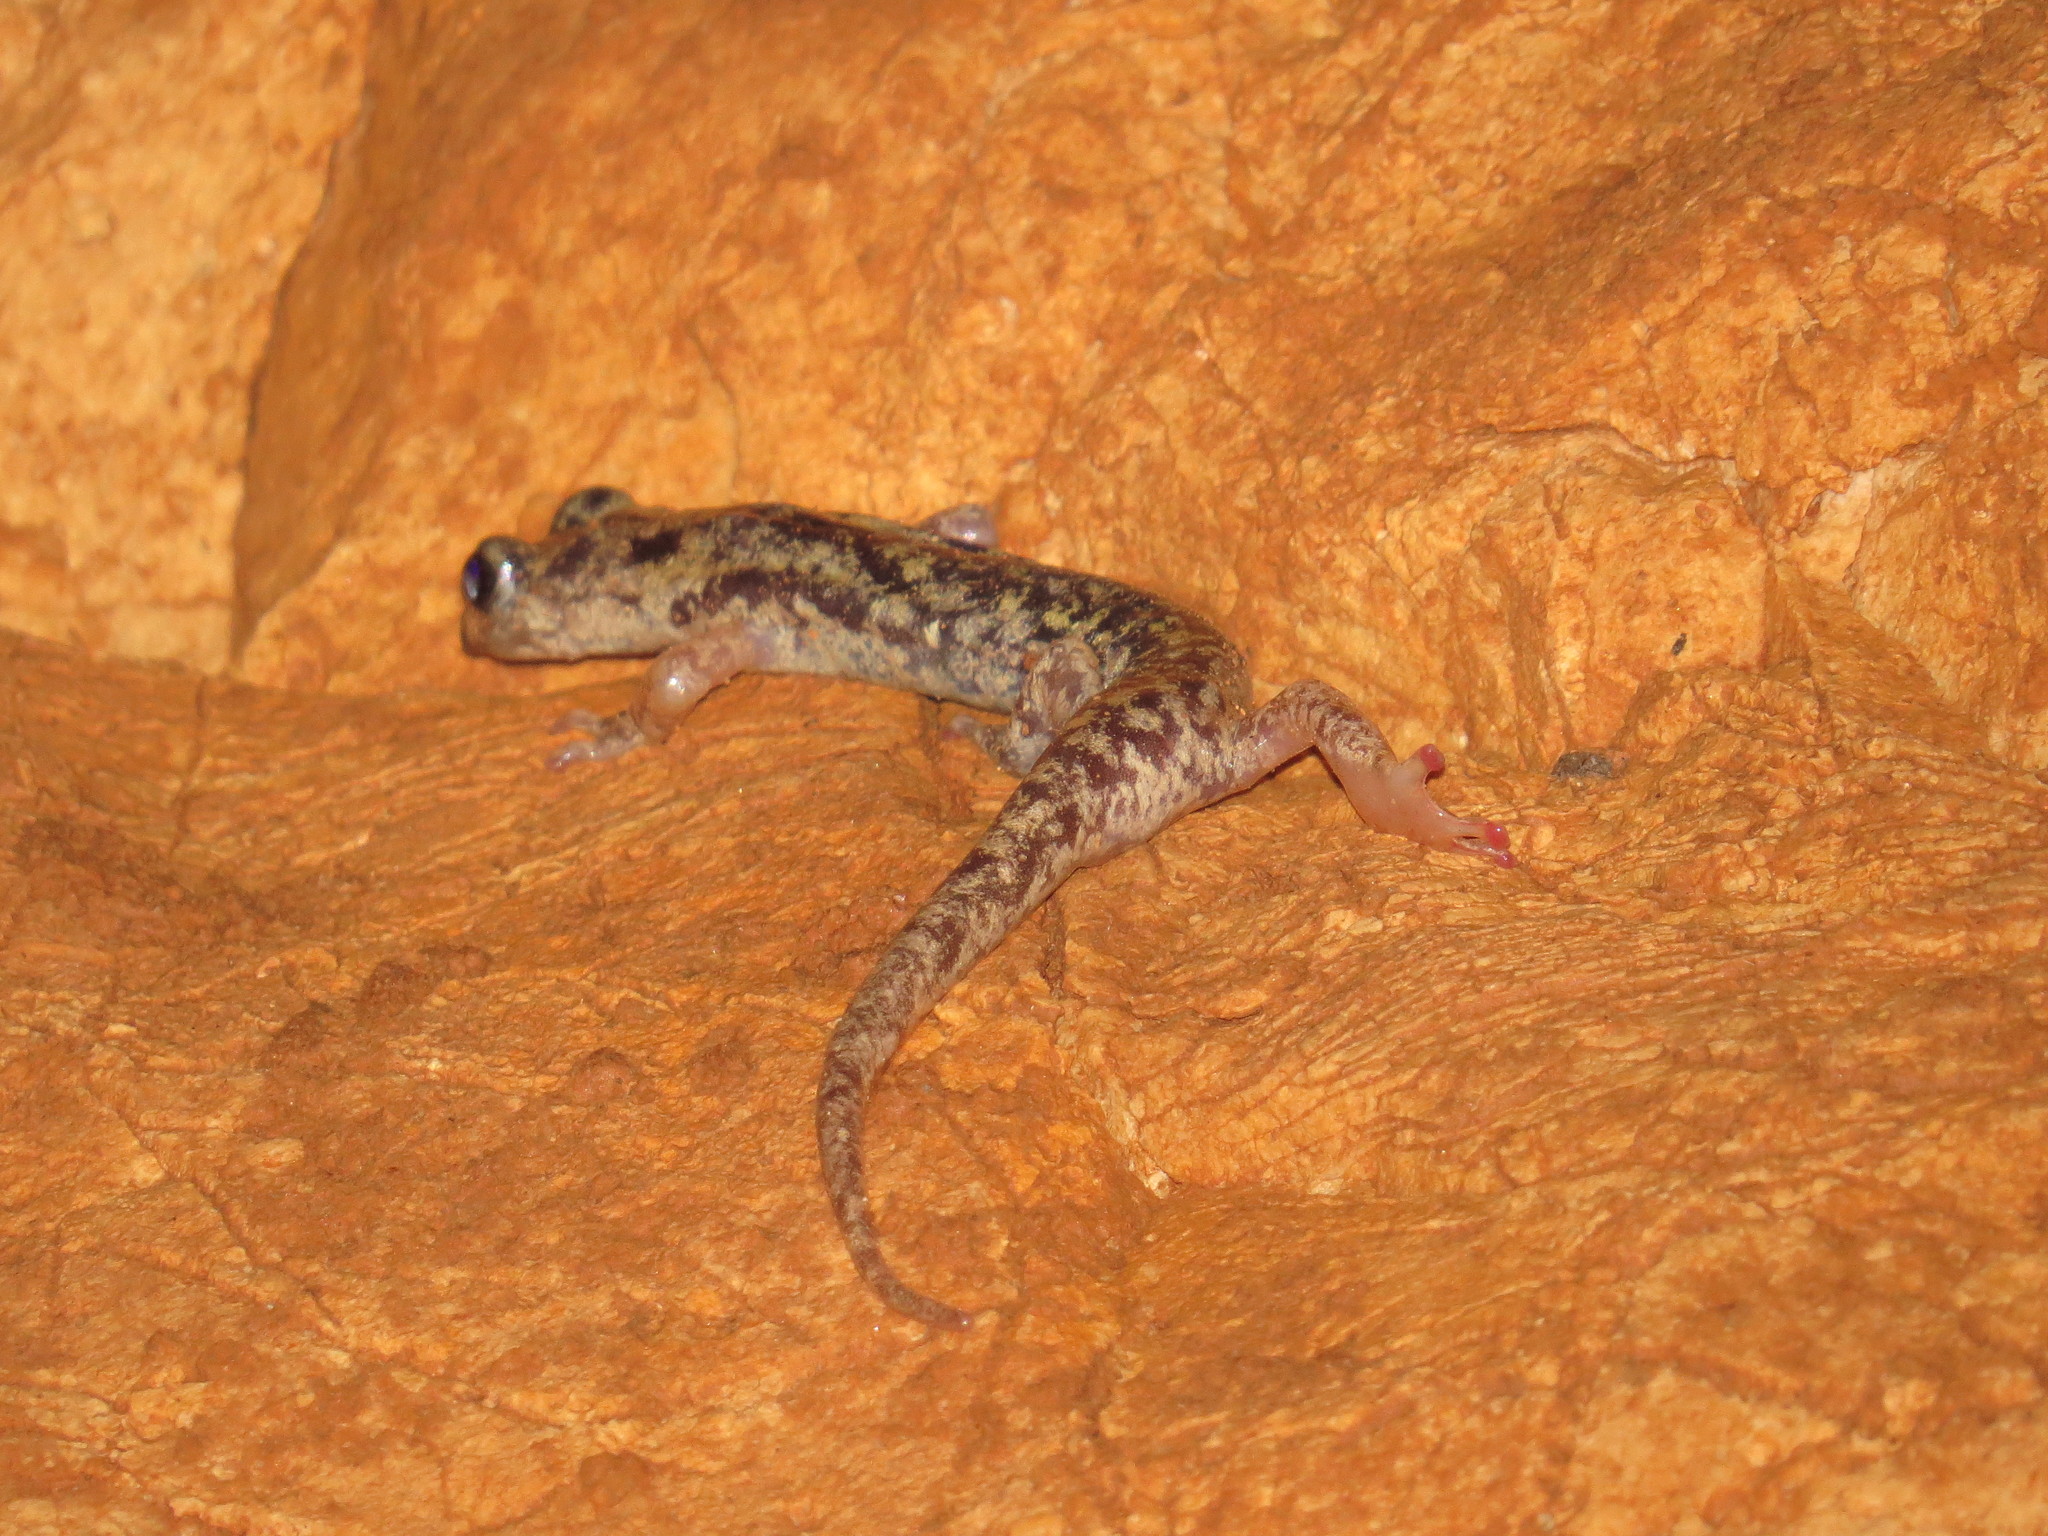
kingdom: Animalia
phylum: Chordata
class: Amphibia
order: Caudata
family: Plethodontidae
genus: Speleomantes
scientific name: Speleomantes supramontis
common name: Supramonte cave salamander
